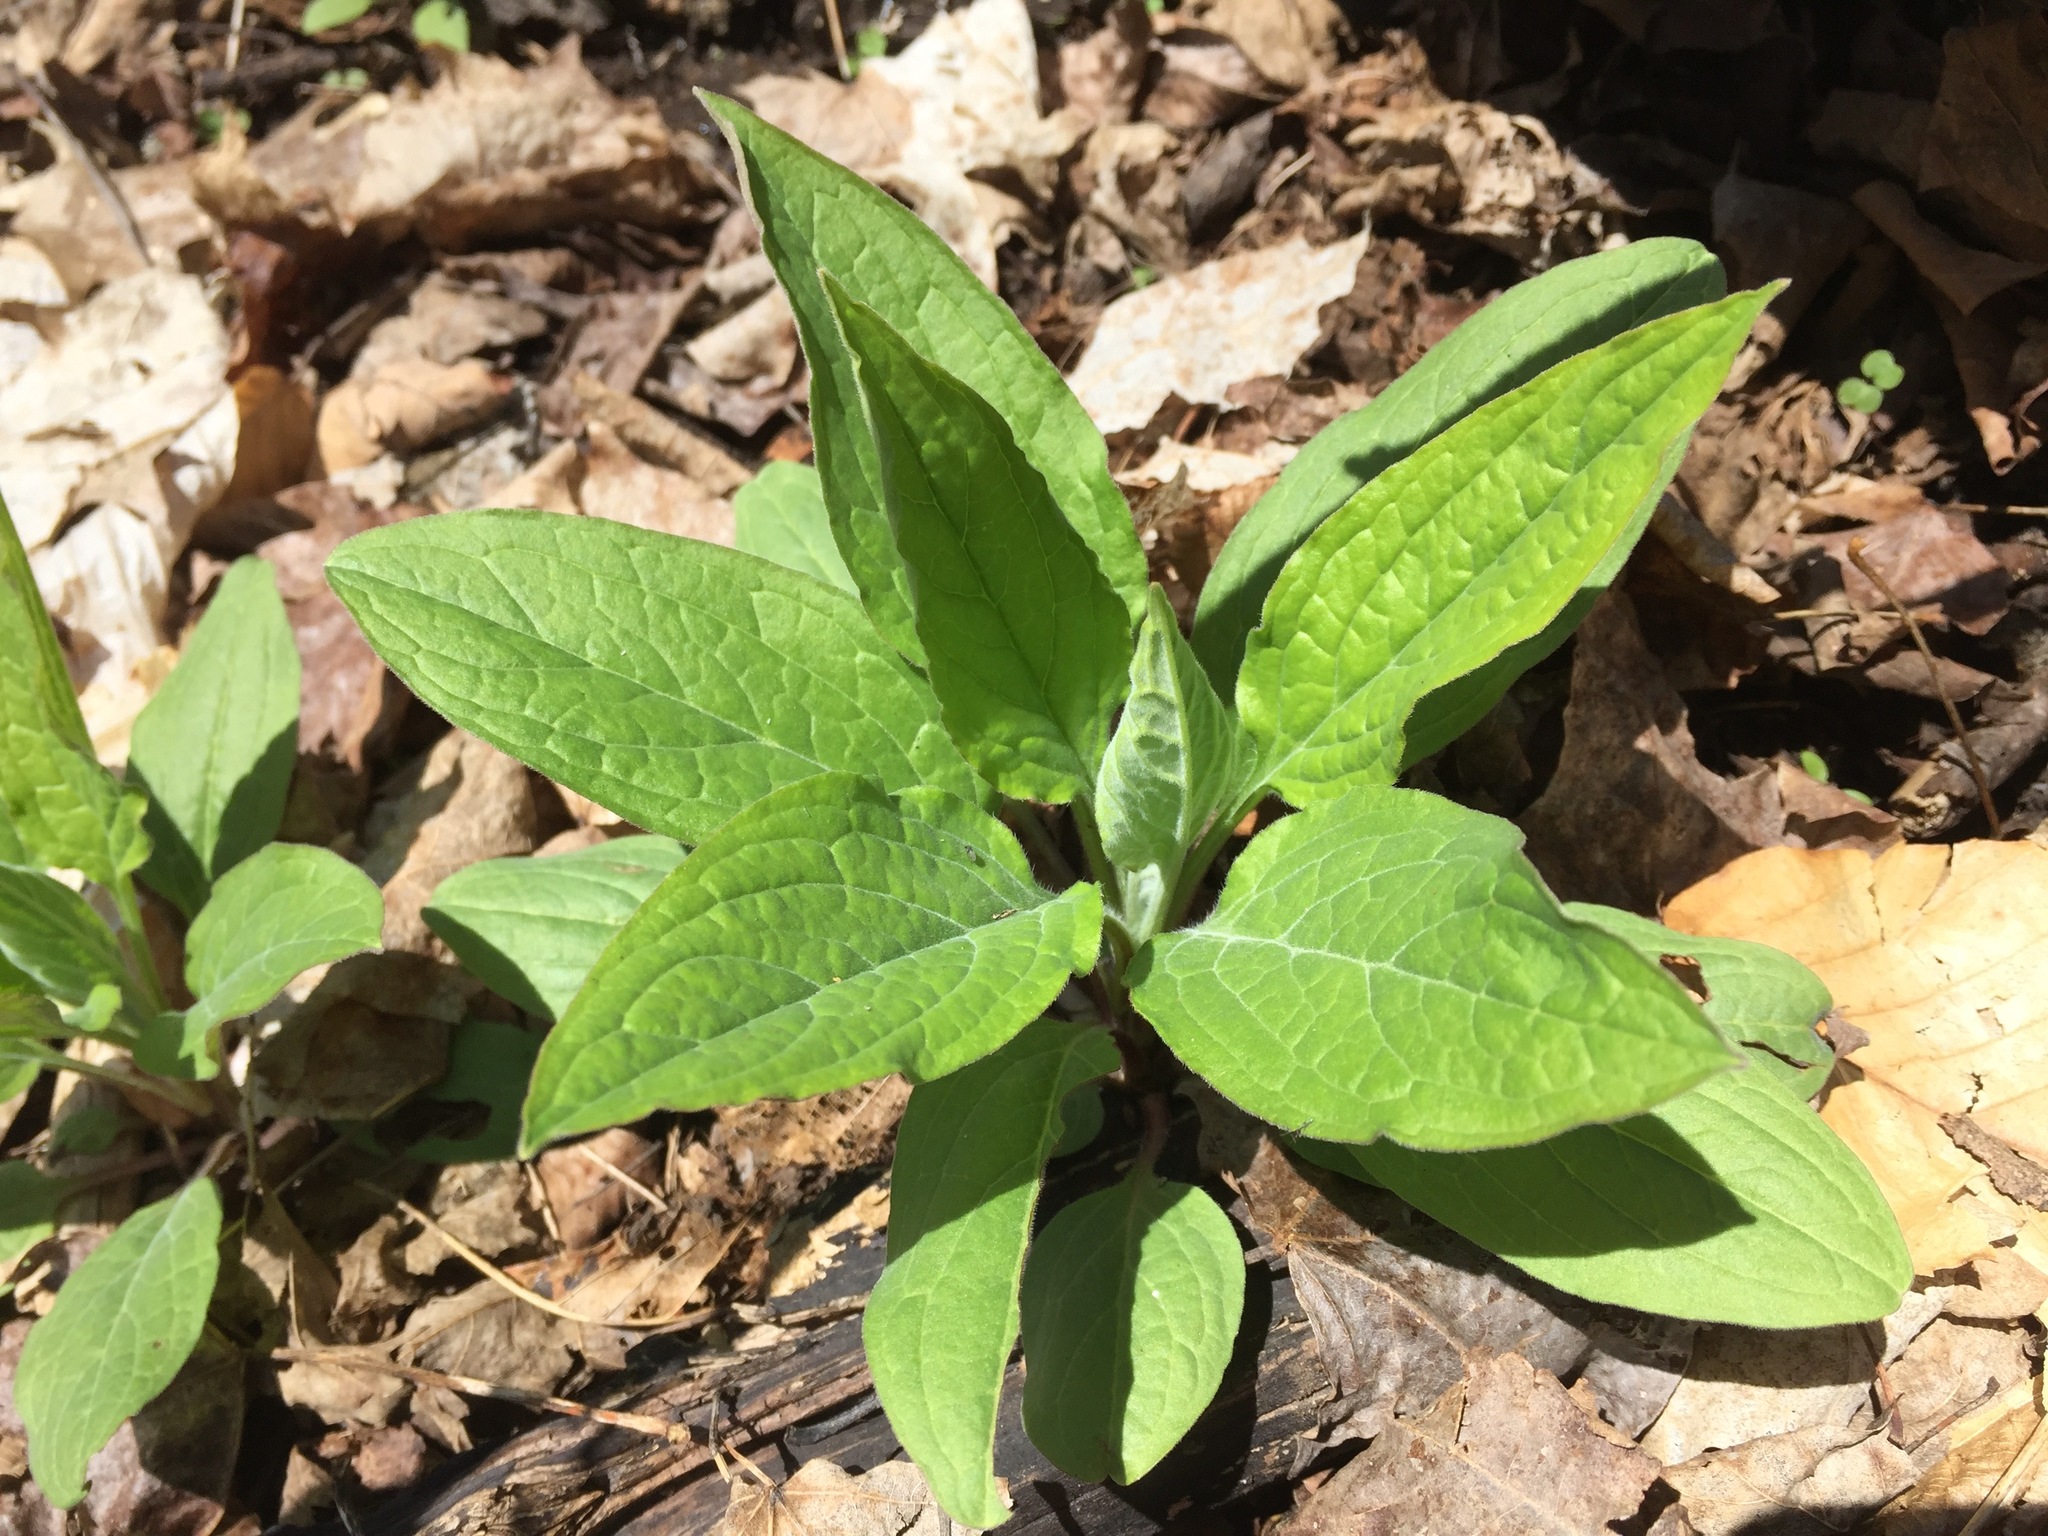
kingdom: Plantae
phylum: Tracheophyta
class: Magnoliopsida
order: Boraginales
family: Boraginaceae
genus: Hackelia
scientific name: Hackelia virginiana
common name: Beggar's-lice
